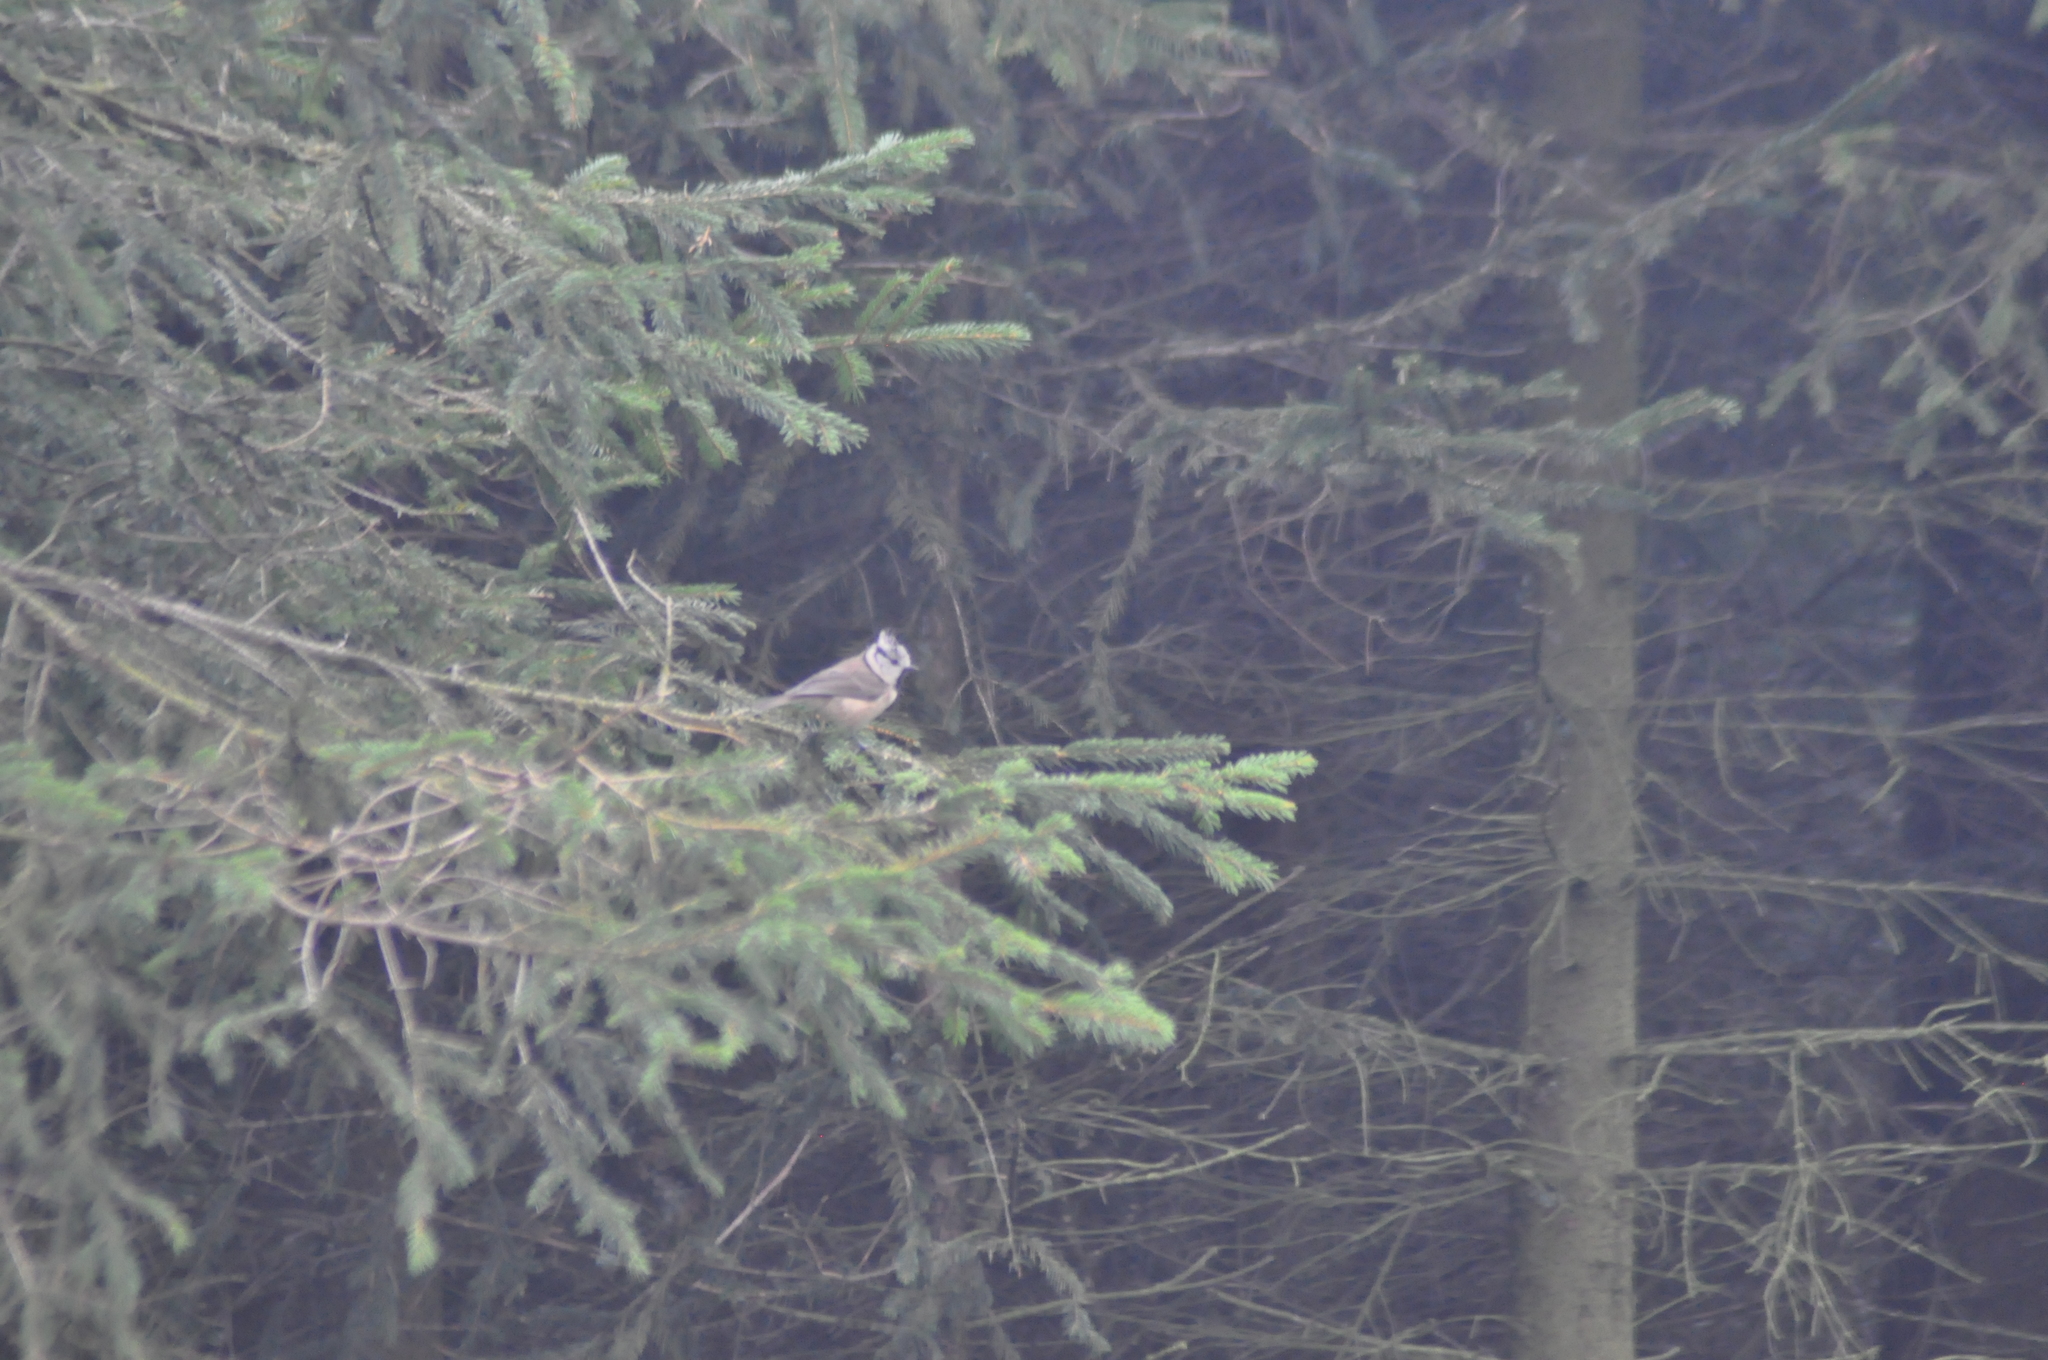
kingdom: Animalia
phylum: Chordata
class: Aves
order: Passeriformes
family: Paridae
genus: Lophophanes
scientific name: Lophophanes cristatus
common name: European crested tit
